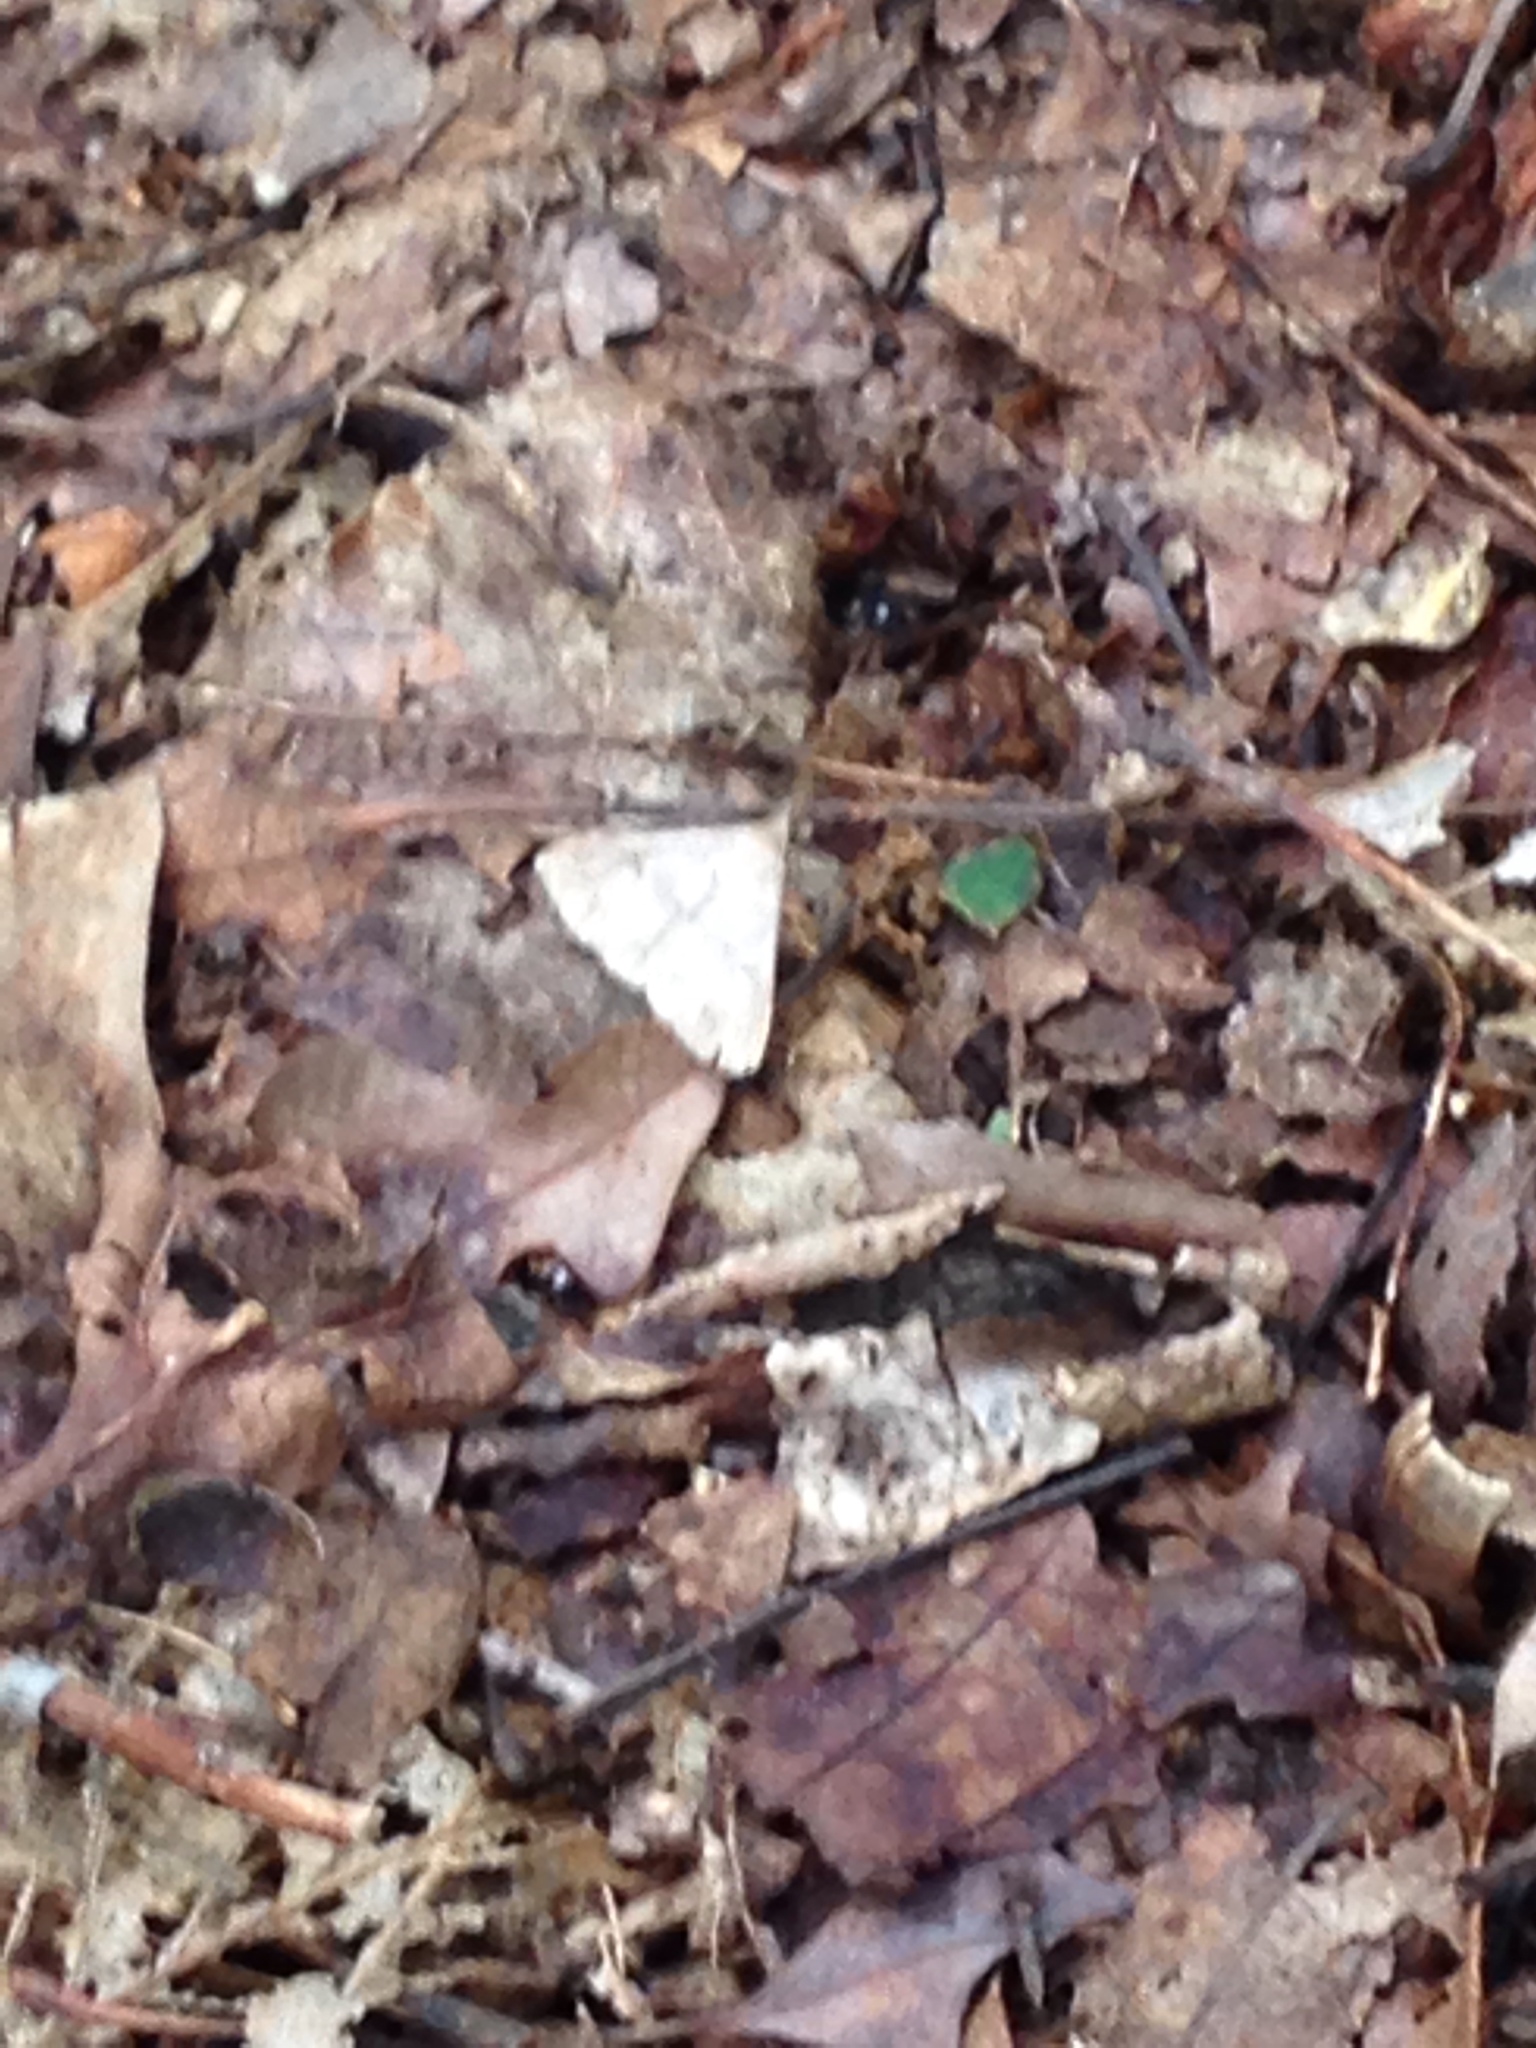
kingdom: Animalia
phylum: Arthropoda
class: Insecta
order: Lepidoptera
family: Erebidae
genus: Renia
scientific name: Renia flavipunctalis
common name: Yellow-spotted renia moth
